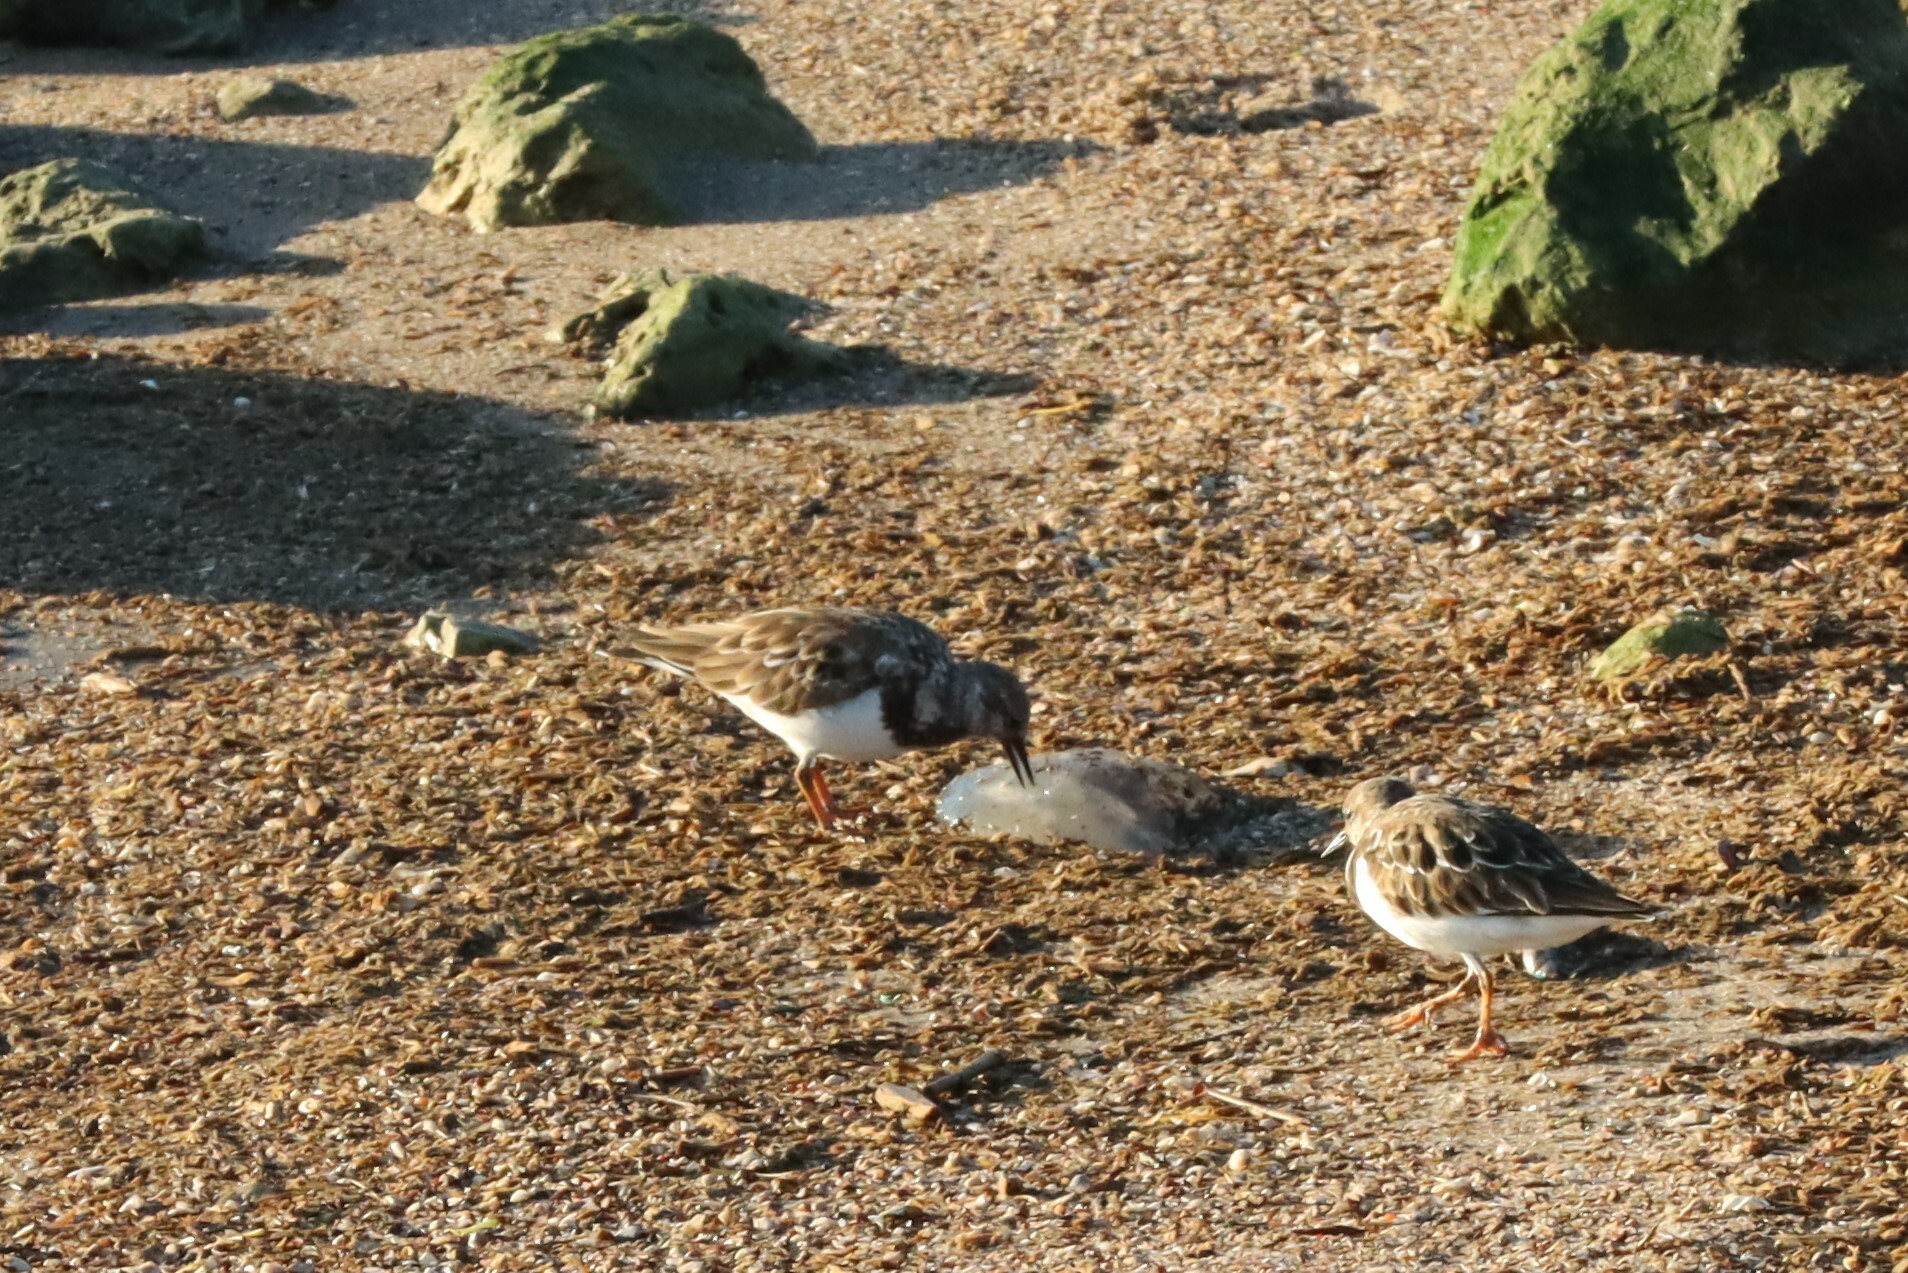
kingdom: Animalia
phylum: Chordata
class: Aves
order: Charadriiformes
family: Scolopacidae
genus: Arenaria
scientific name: Arenaria interpres
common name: Ruddy turnstone
